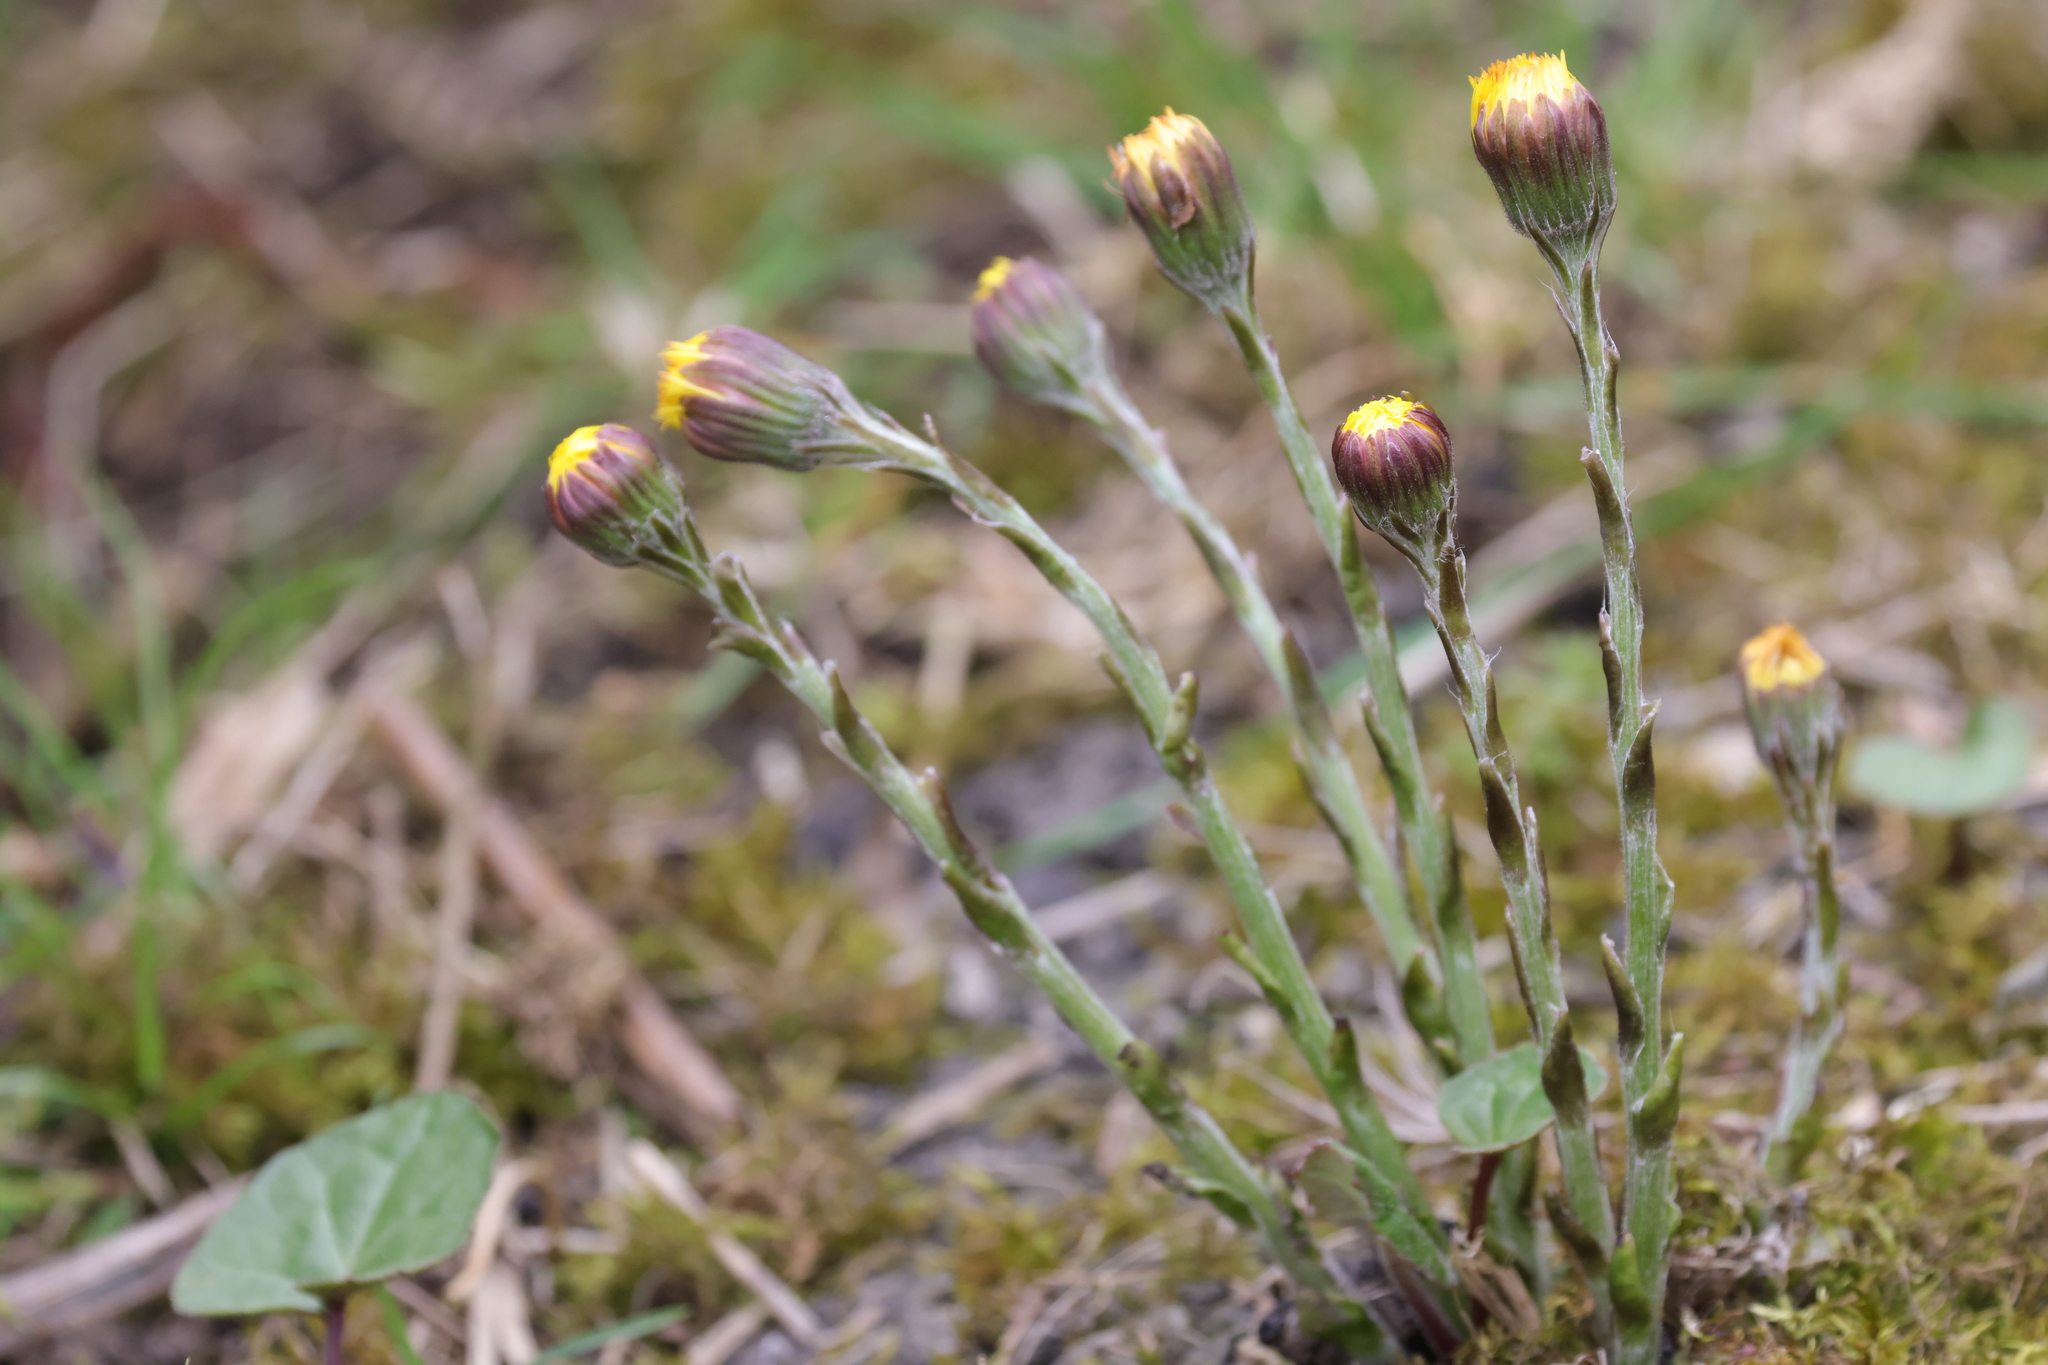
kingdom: Plantae
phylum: Tracheophyta
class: Magnoliopsida
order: Asterales
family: Asteraceae
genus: Tussilago
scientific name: Tussilago farfara
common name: Coltsfoot
